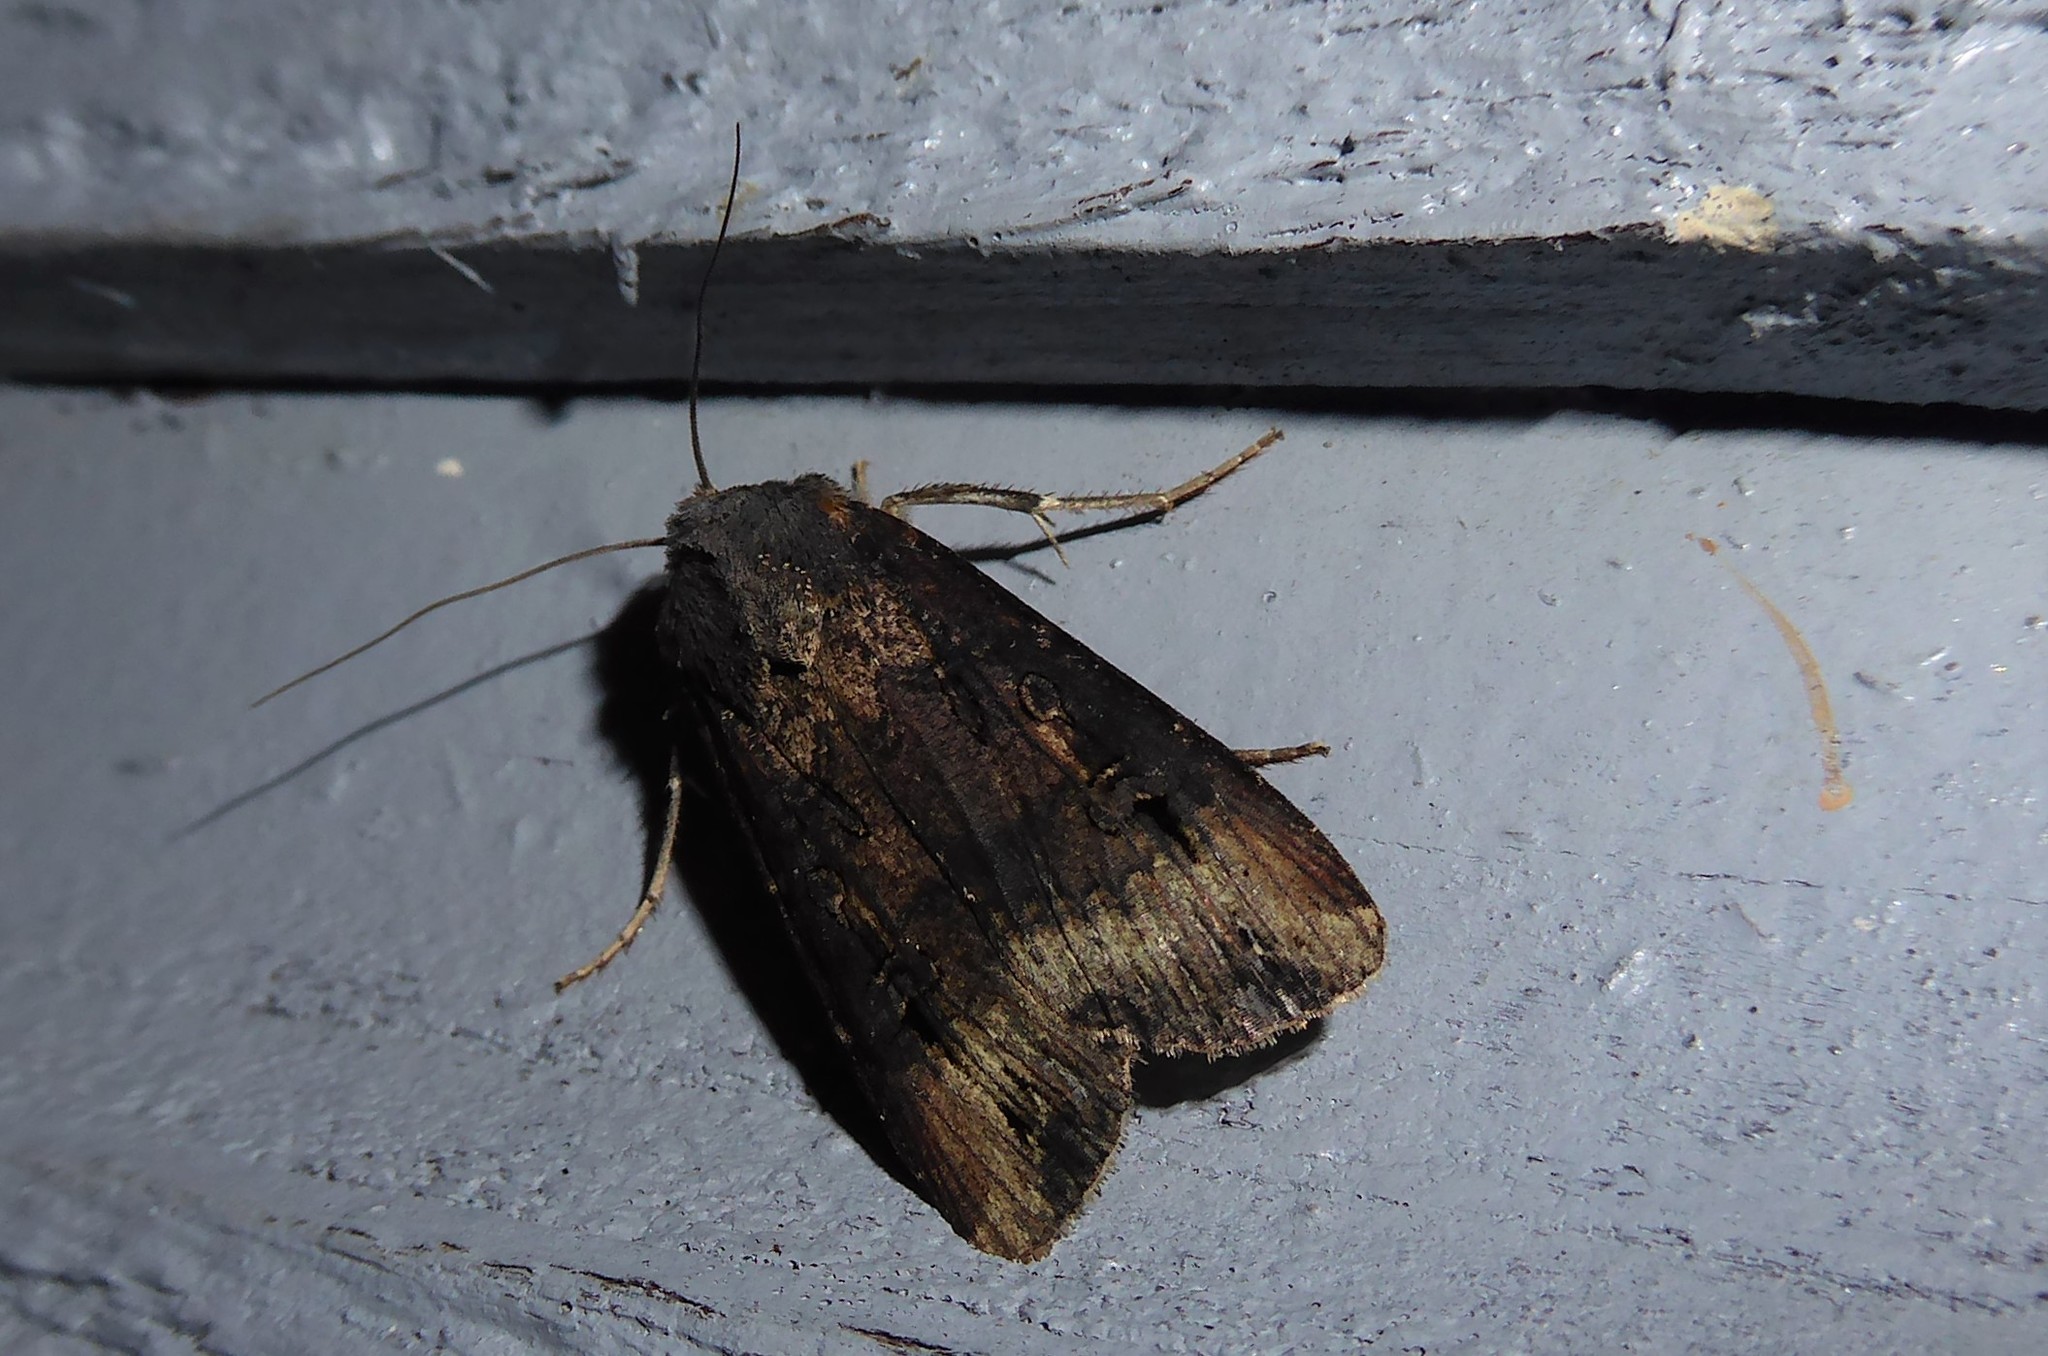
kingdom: Animalia
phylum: Arthropoda
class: Insecta
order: Lepidoptera
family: Noctuidae
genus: Agrotis
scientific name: Agrotis ipsilon
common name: Dark sword-grass
